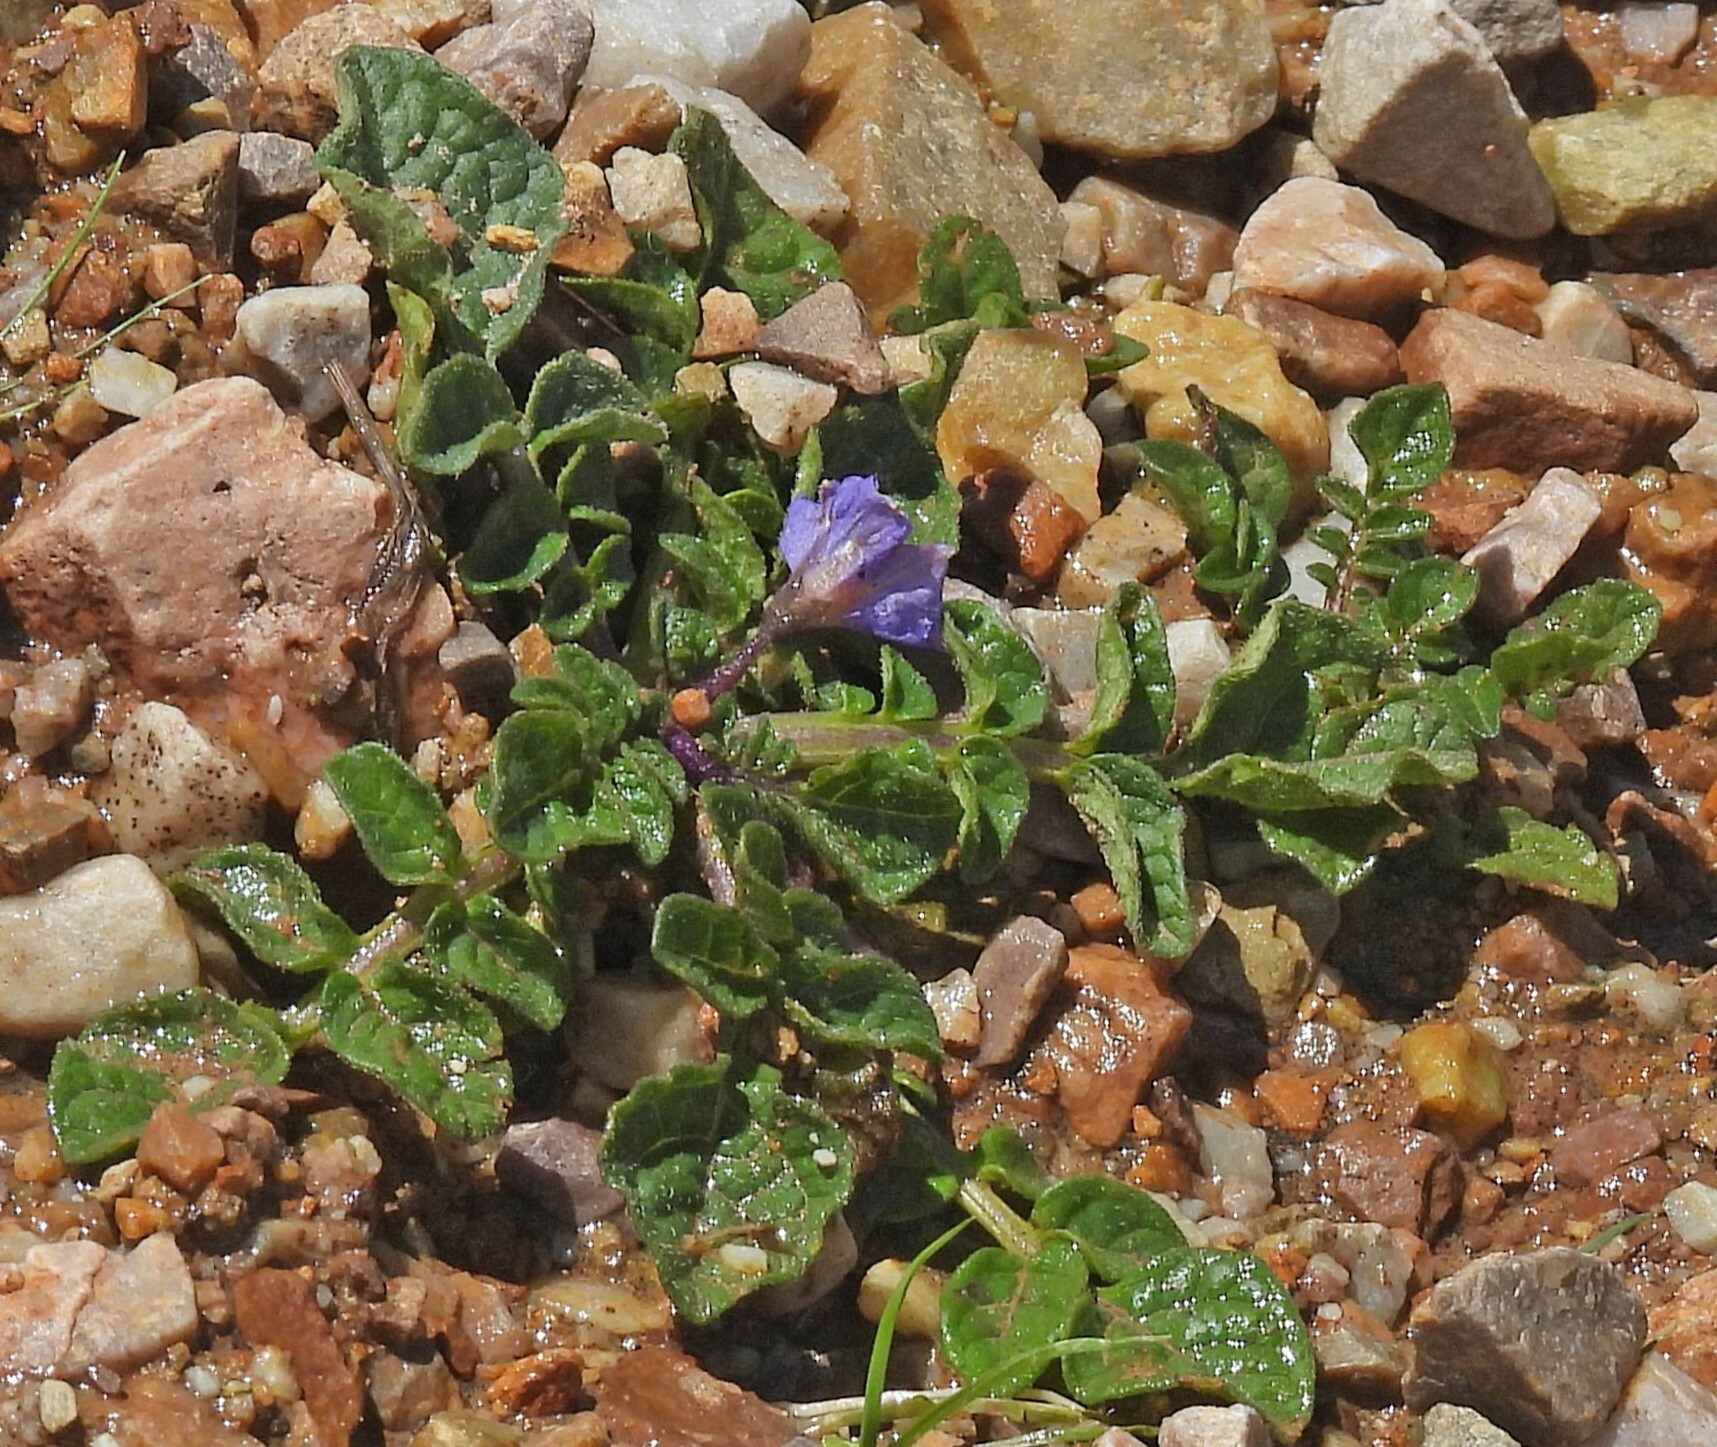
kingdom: Plantae
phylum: Tracheophyta
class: Magnoliopsida
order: Solanales
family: Solanaceae
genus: Solanum
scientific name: Solanum acaule
